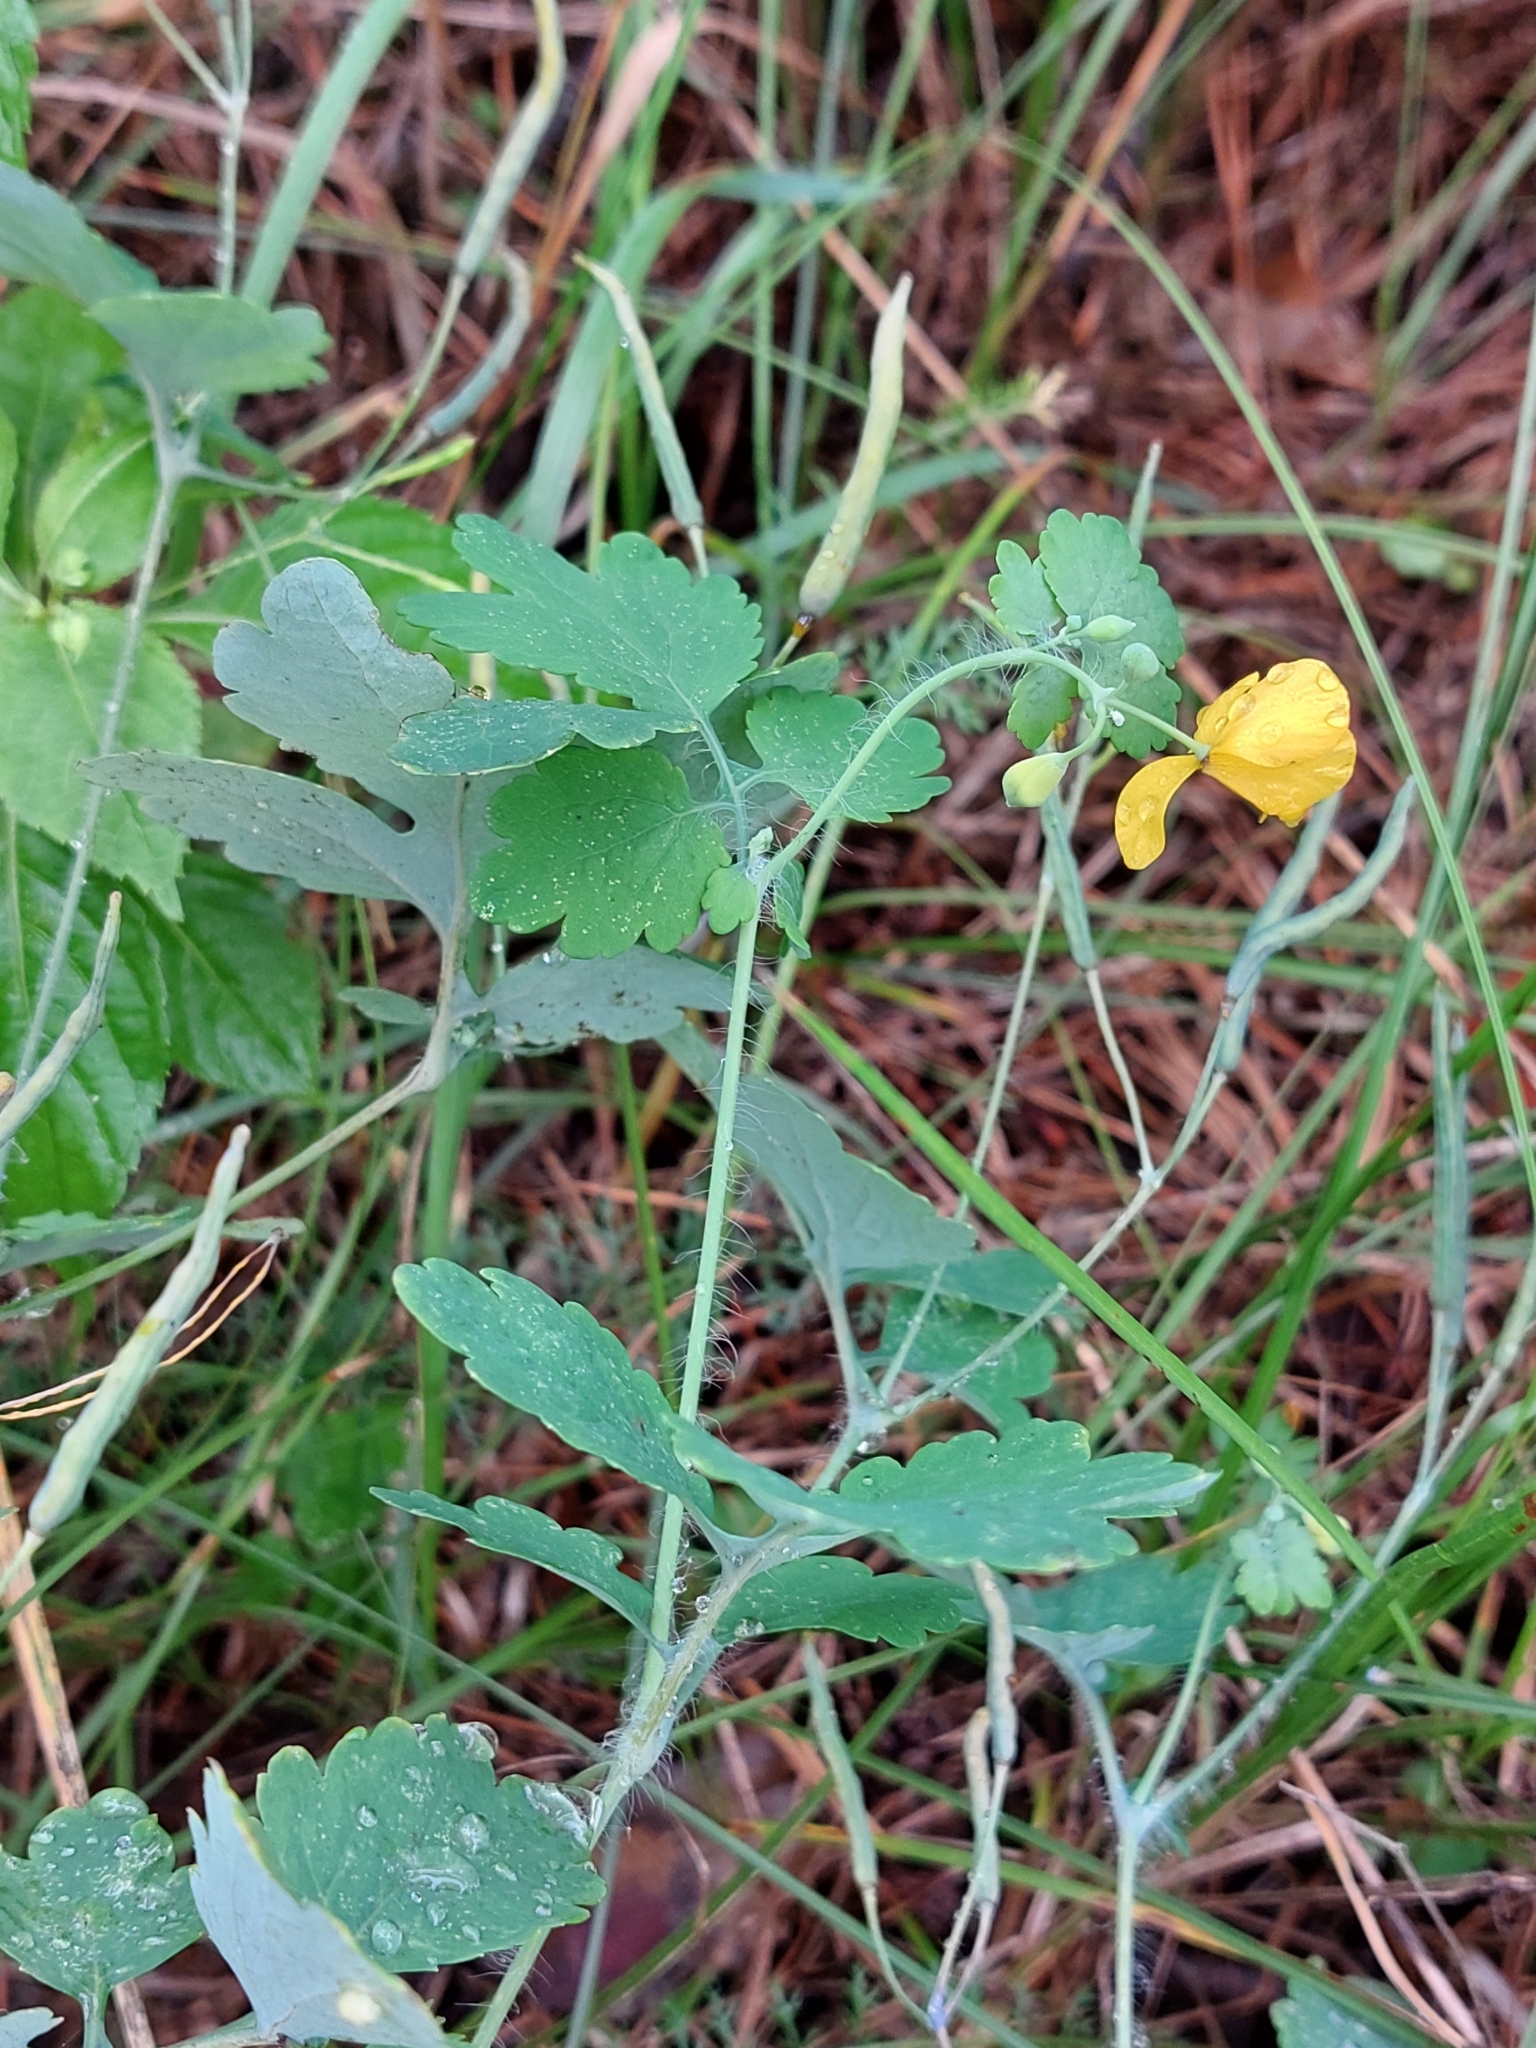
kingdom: Plantae
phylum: Tracheophyta
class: Magnoliopsida
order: Ranunculales
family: Papaveraceae
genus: Chelidonium
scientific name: Chelidonium majus
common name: Greater celandine
